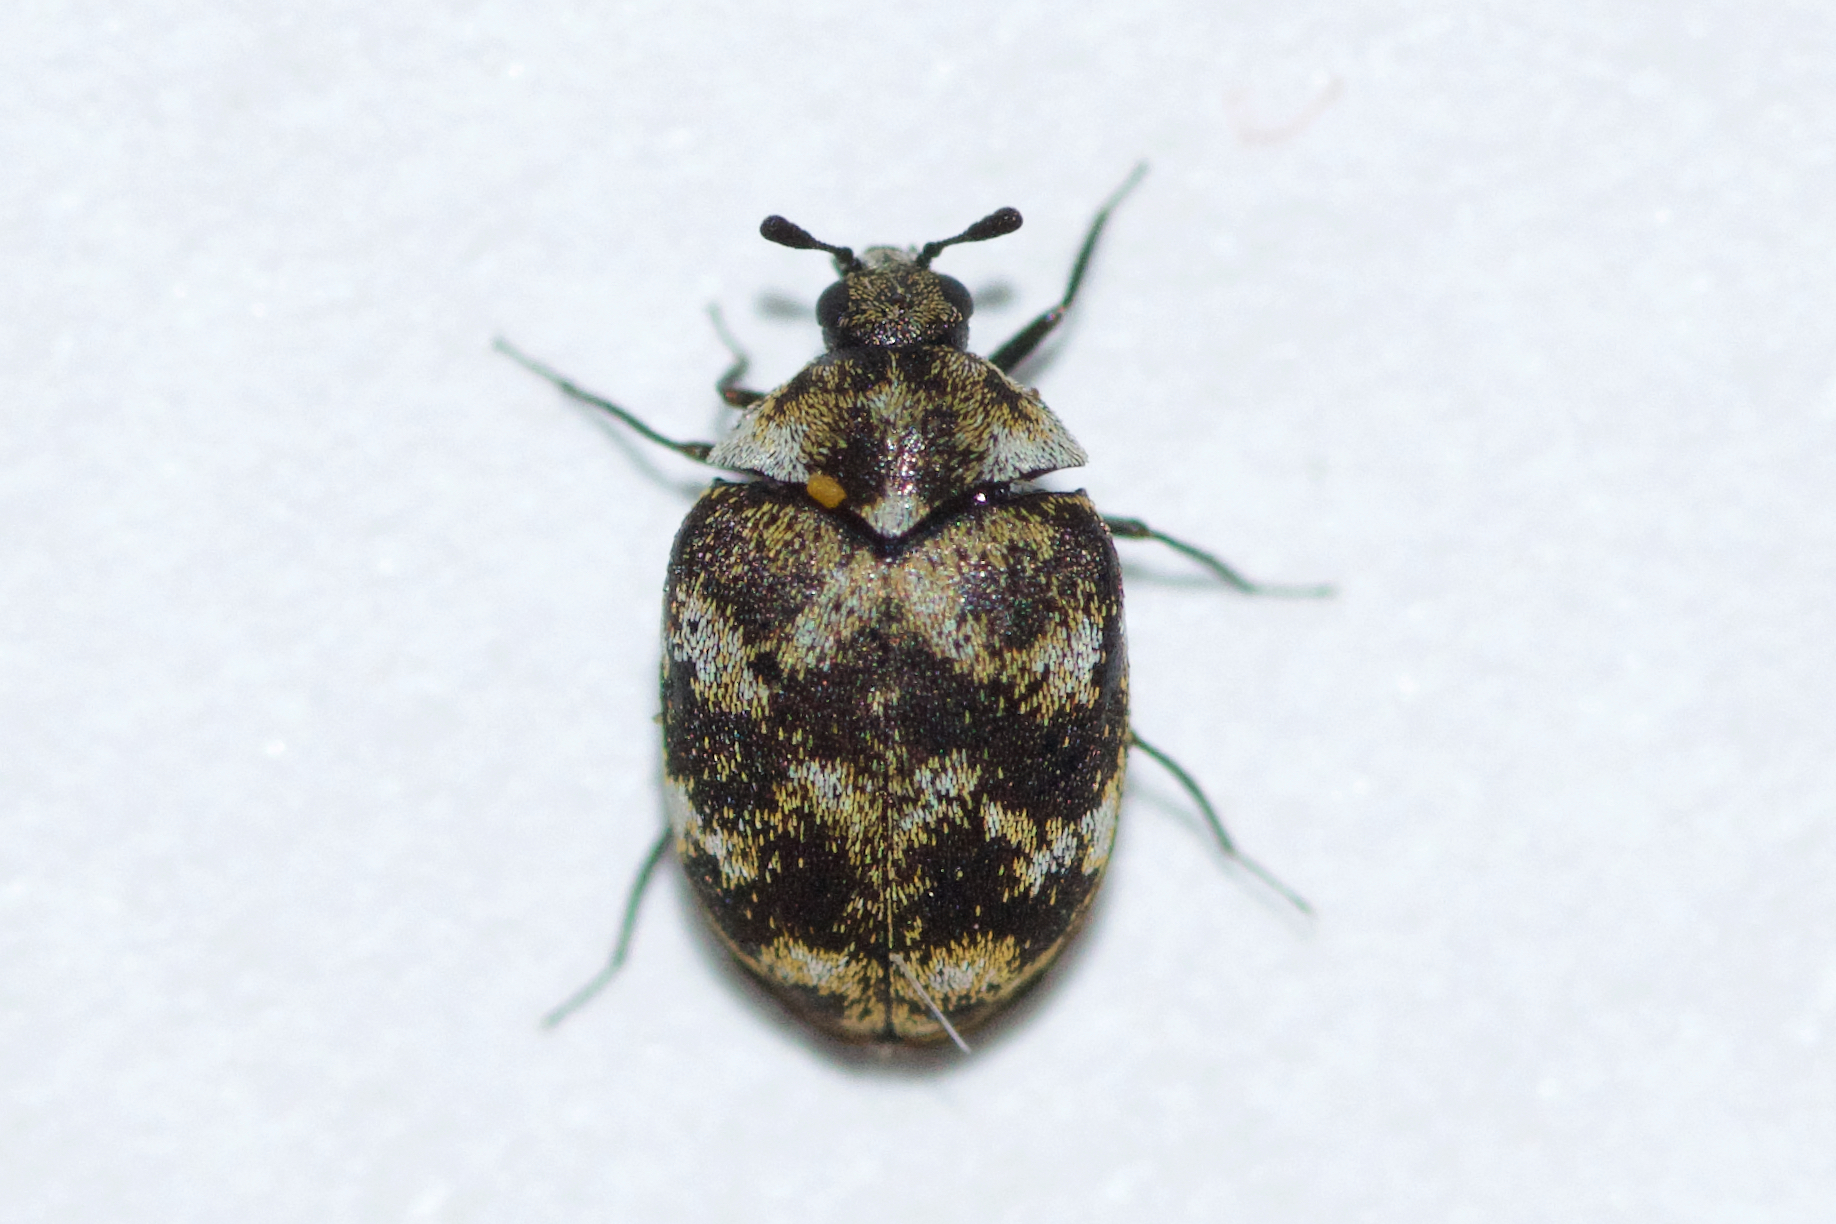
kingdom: Animalia
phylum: Arthropoda
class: Insecta
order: Coleoptera
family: Dermestidae
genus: Anthrenus
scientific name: Anthrenus verbasci
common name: Varied carpet beetle
